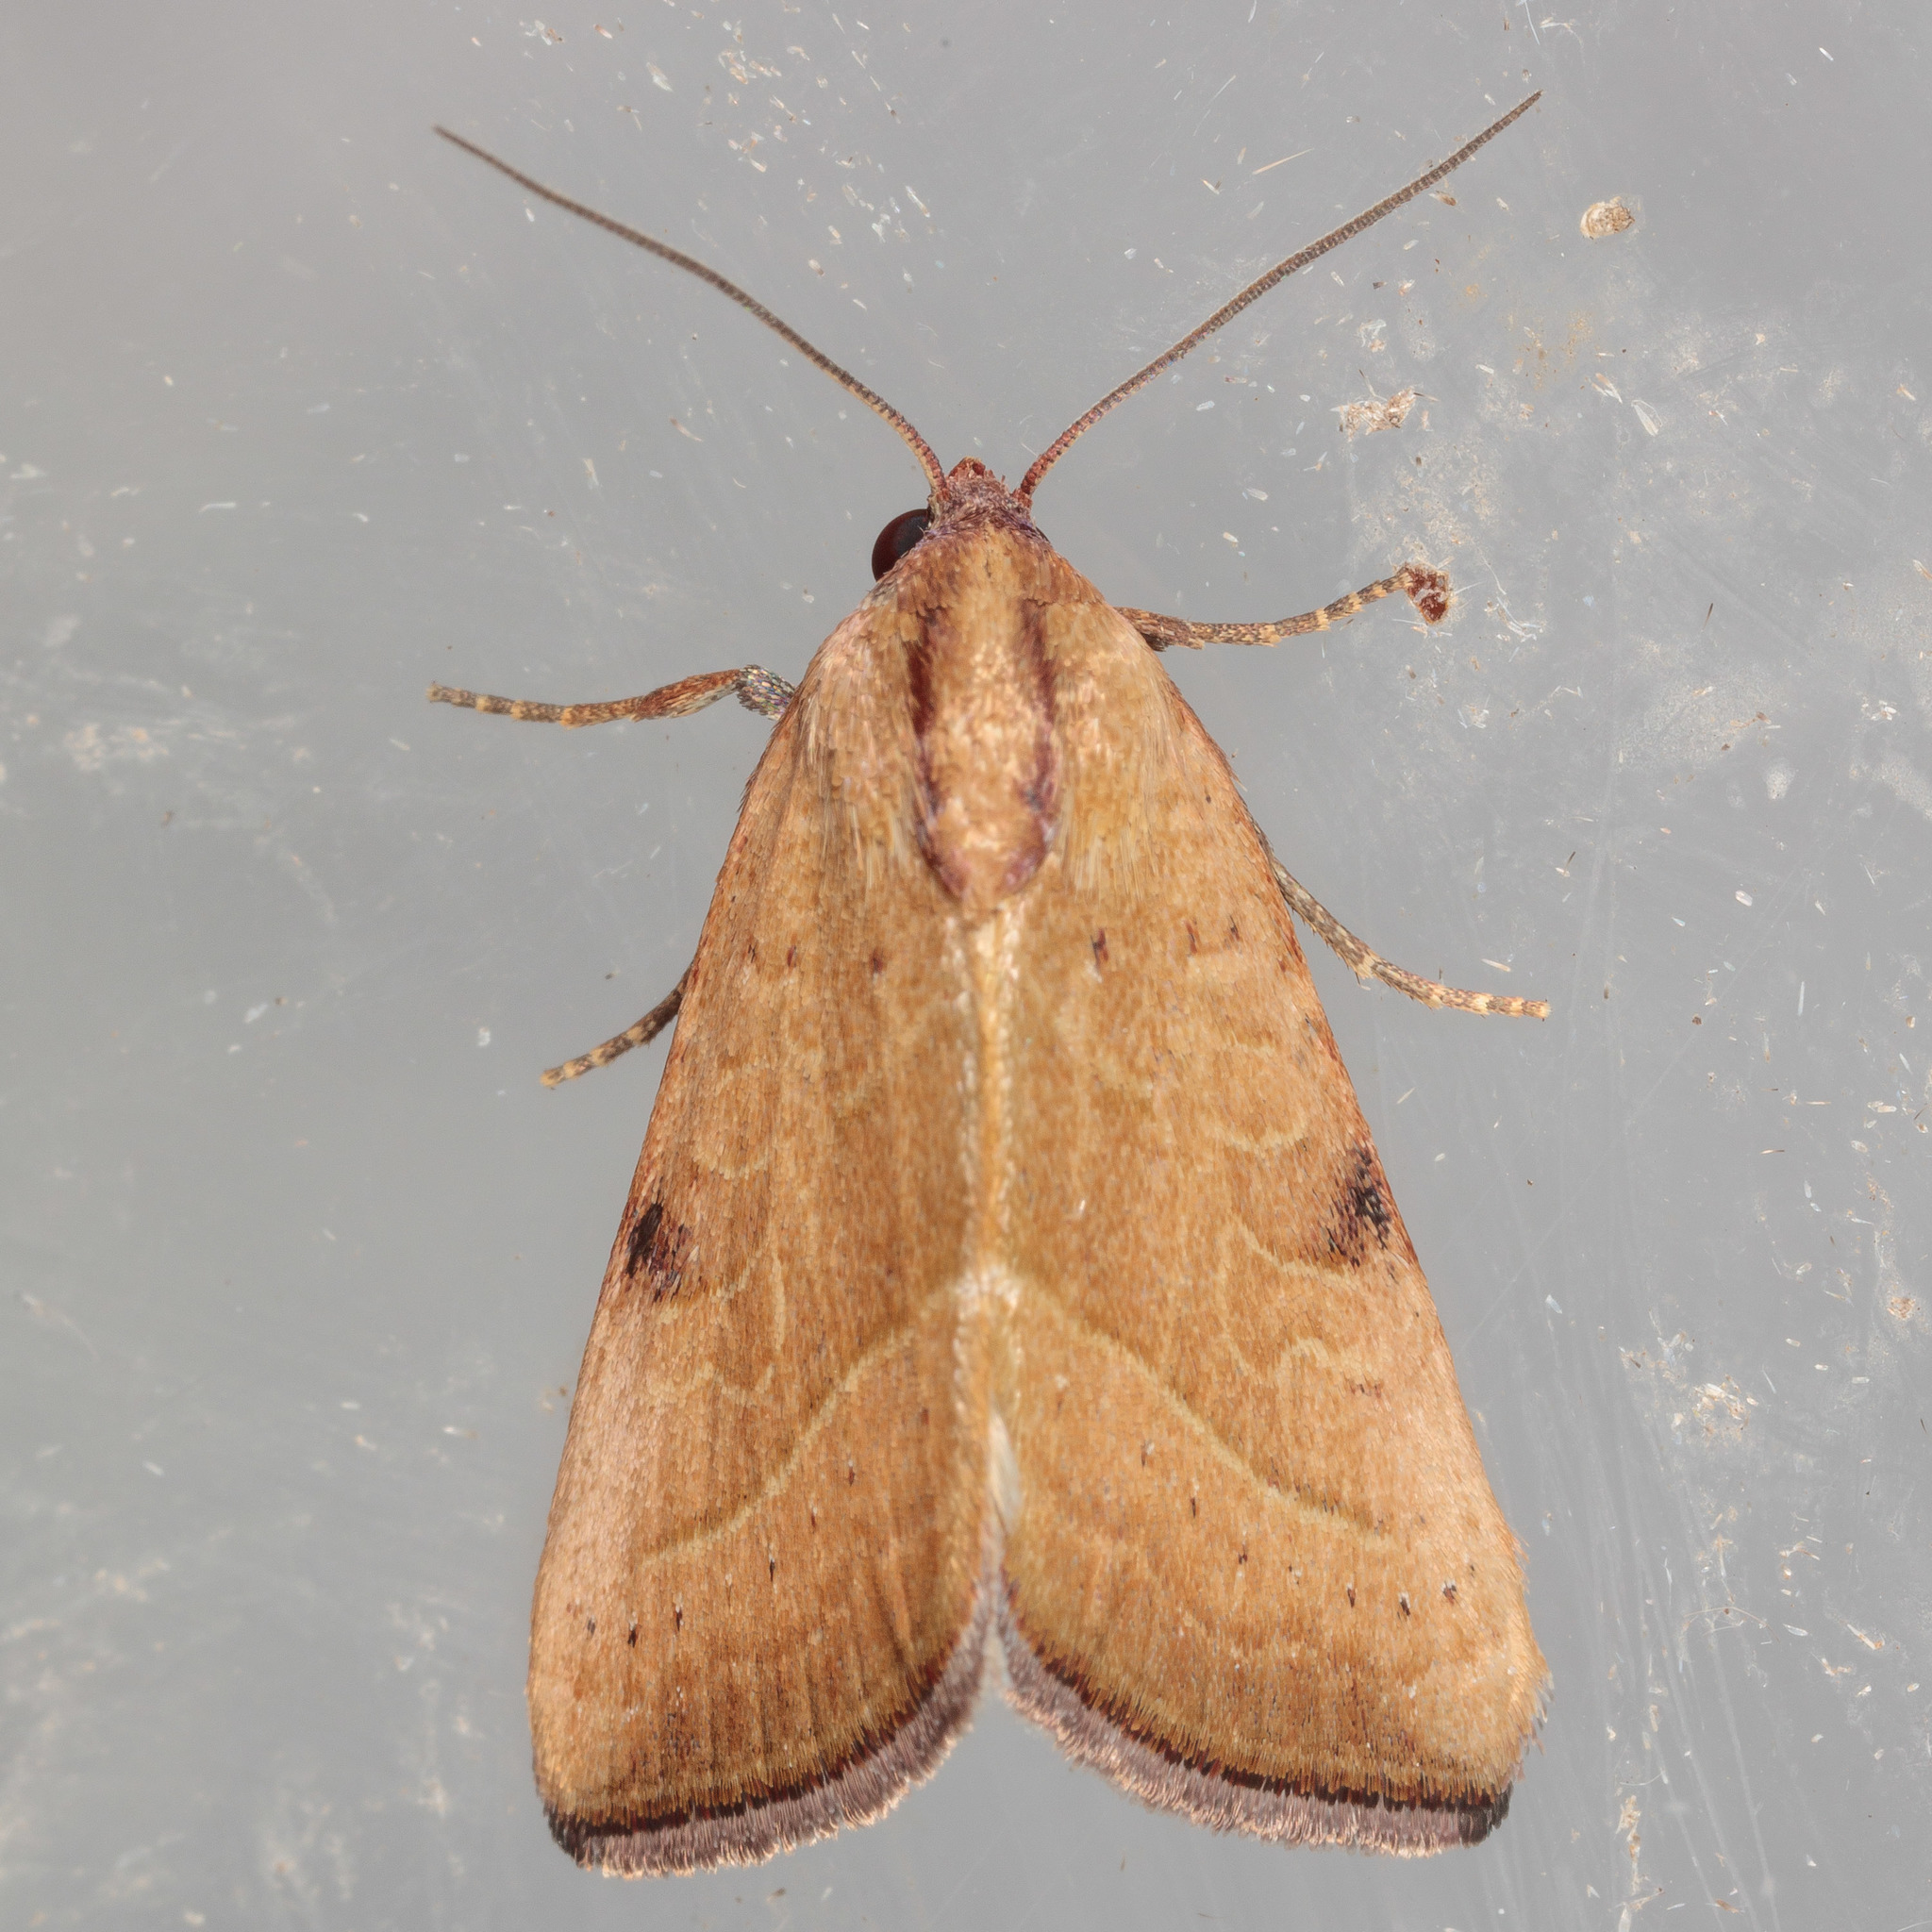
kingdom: Animalia
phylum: Arthropoda
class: Insecta
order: Lepidoptera
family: Noctuidae
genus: Galgula
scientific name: Galgula partita
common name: Wedgeling
